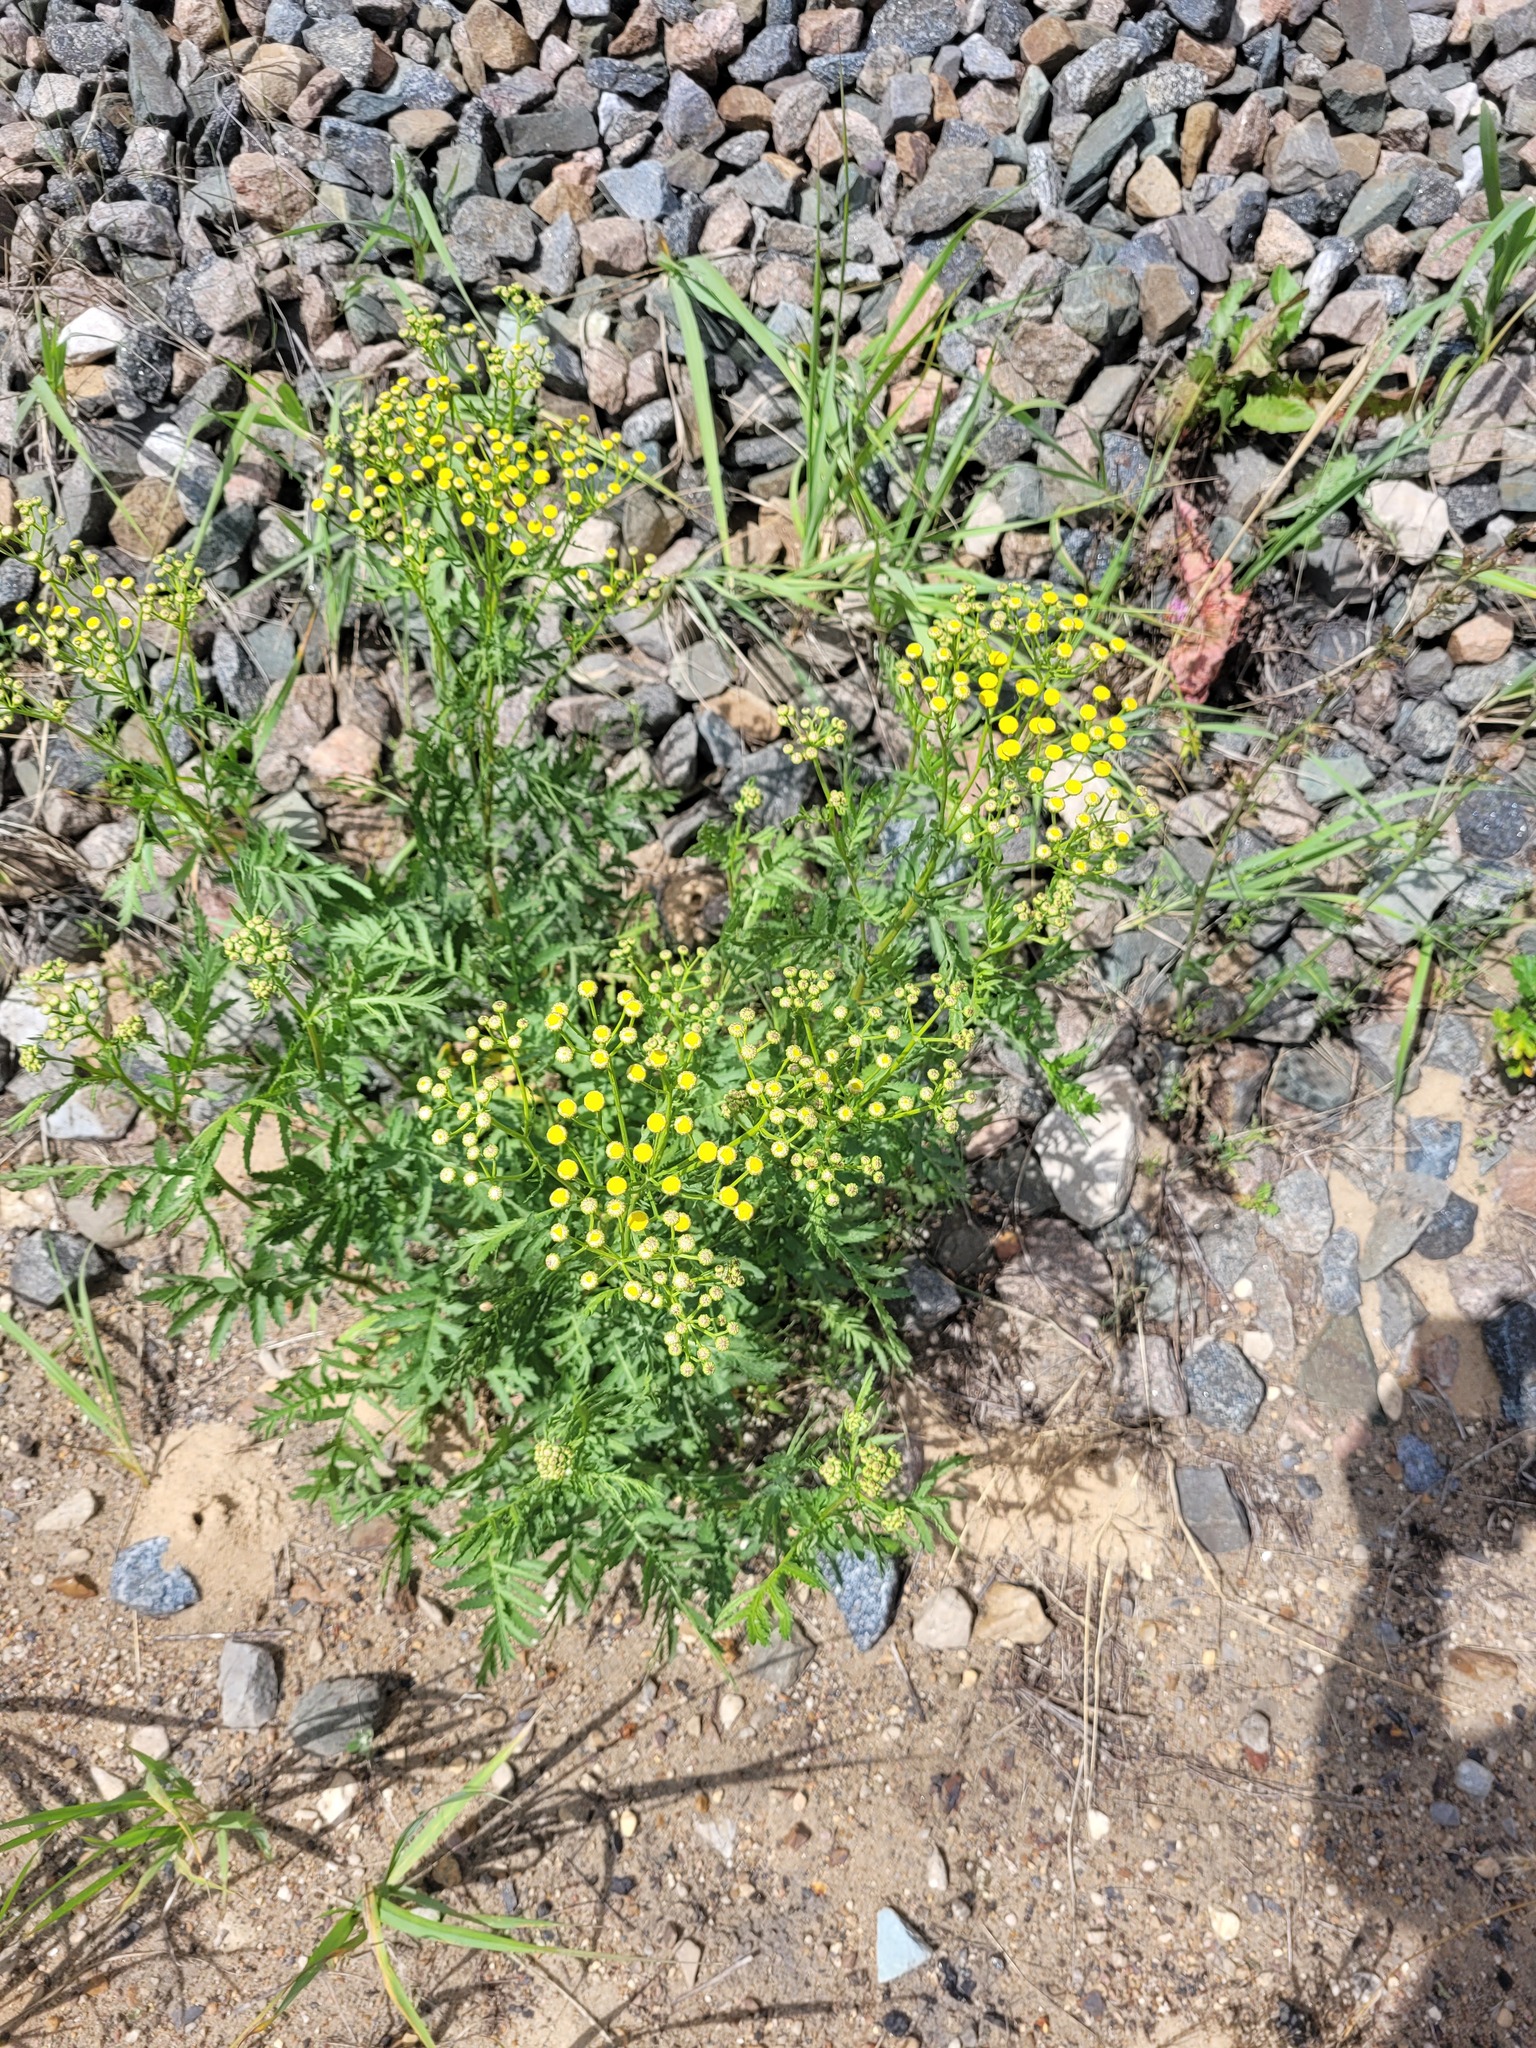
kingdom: Plantae
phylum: Tracheophyta
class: Magnoliopsida
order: Asterales
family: Asteraceae
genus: Tanacetum
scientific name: Tanacetum vulgare
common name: Common tansy
